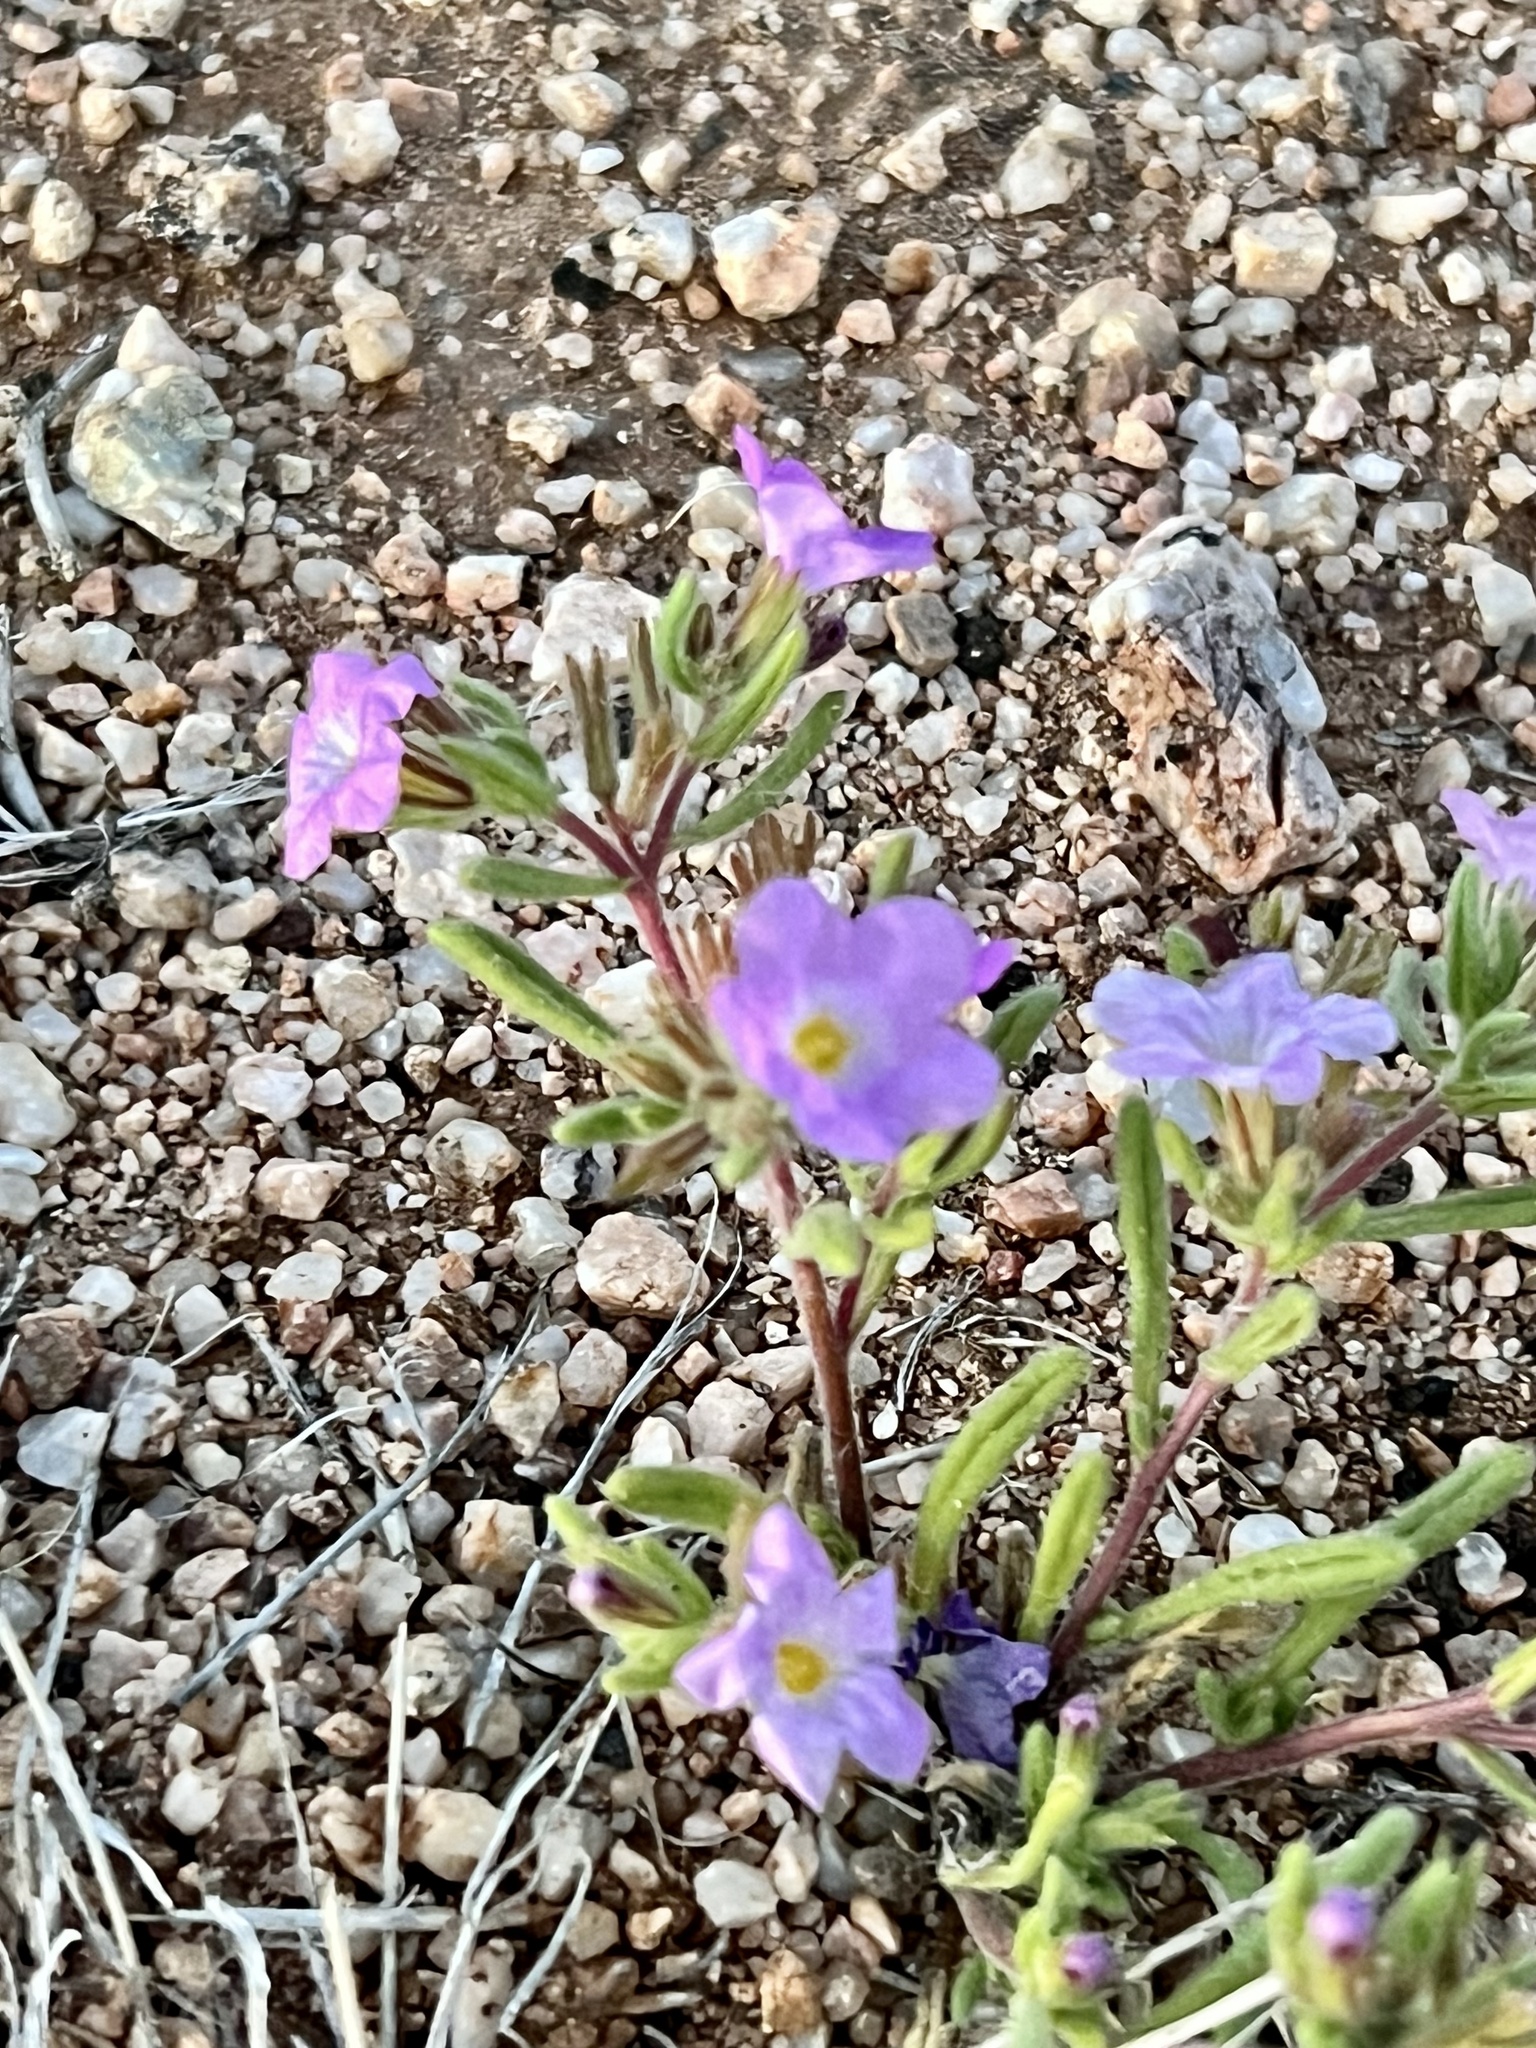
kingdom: Plantae
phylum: Tracheophyta
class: Magnoliopsida
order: Boraginales
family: Namaceae
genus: Nama
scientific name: Nama hispida
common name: Bristly nama
